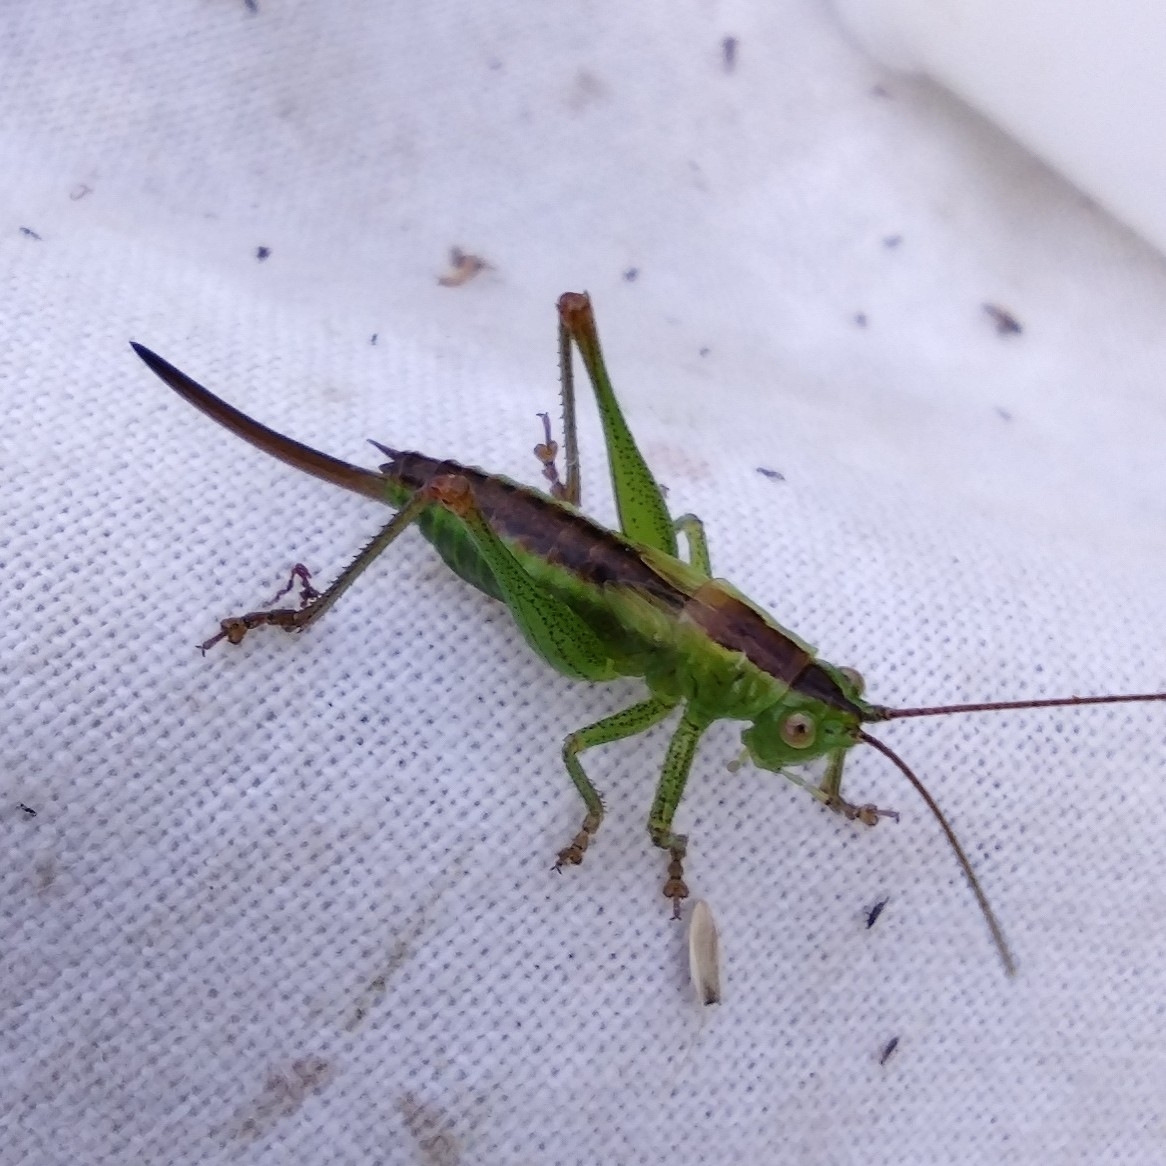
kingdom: Animalia
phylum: Arthropoda
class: Insecta
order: Orthoptera
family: Tettigoniidae
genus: Conocephalus
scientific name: Conocephalus dorsalis
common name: Short-winged conehead
